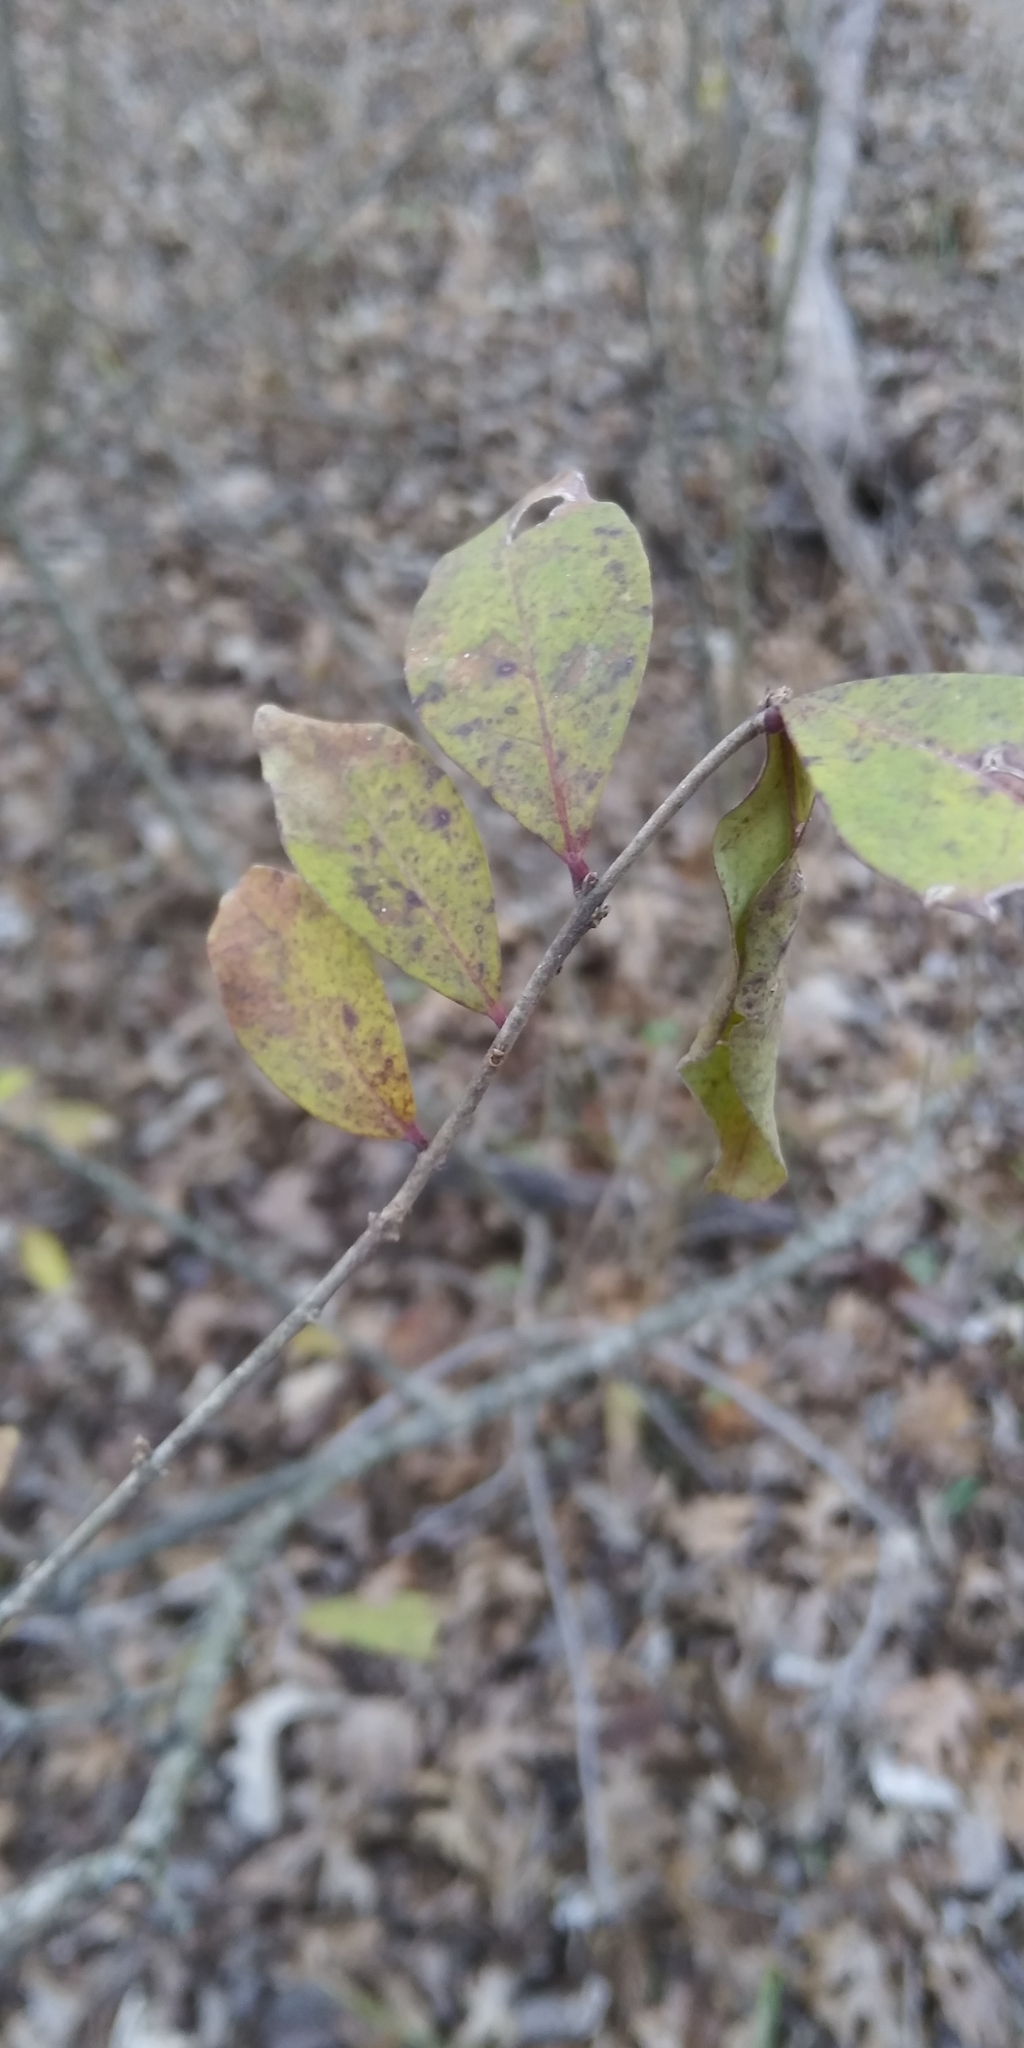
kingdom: Plantae
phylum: Tracheophyta
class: Magnoliopsida
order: Lamiales
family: Oleaceae
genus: Ligustrum
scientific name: Ligustrum quihoui
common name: Waxyleaf privet
